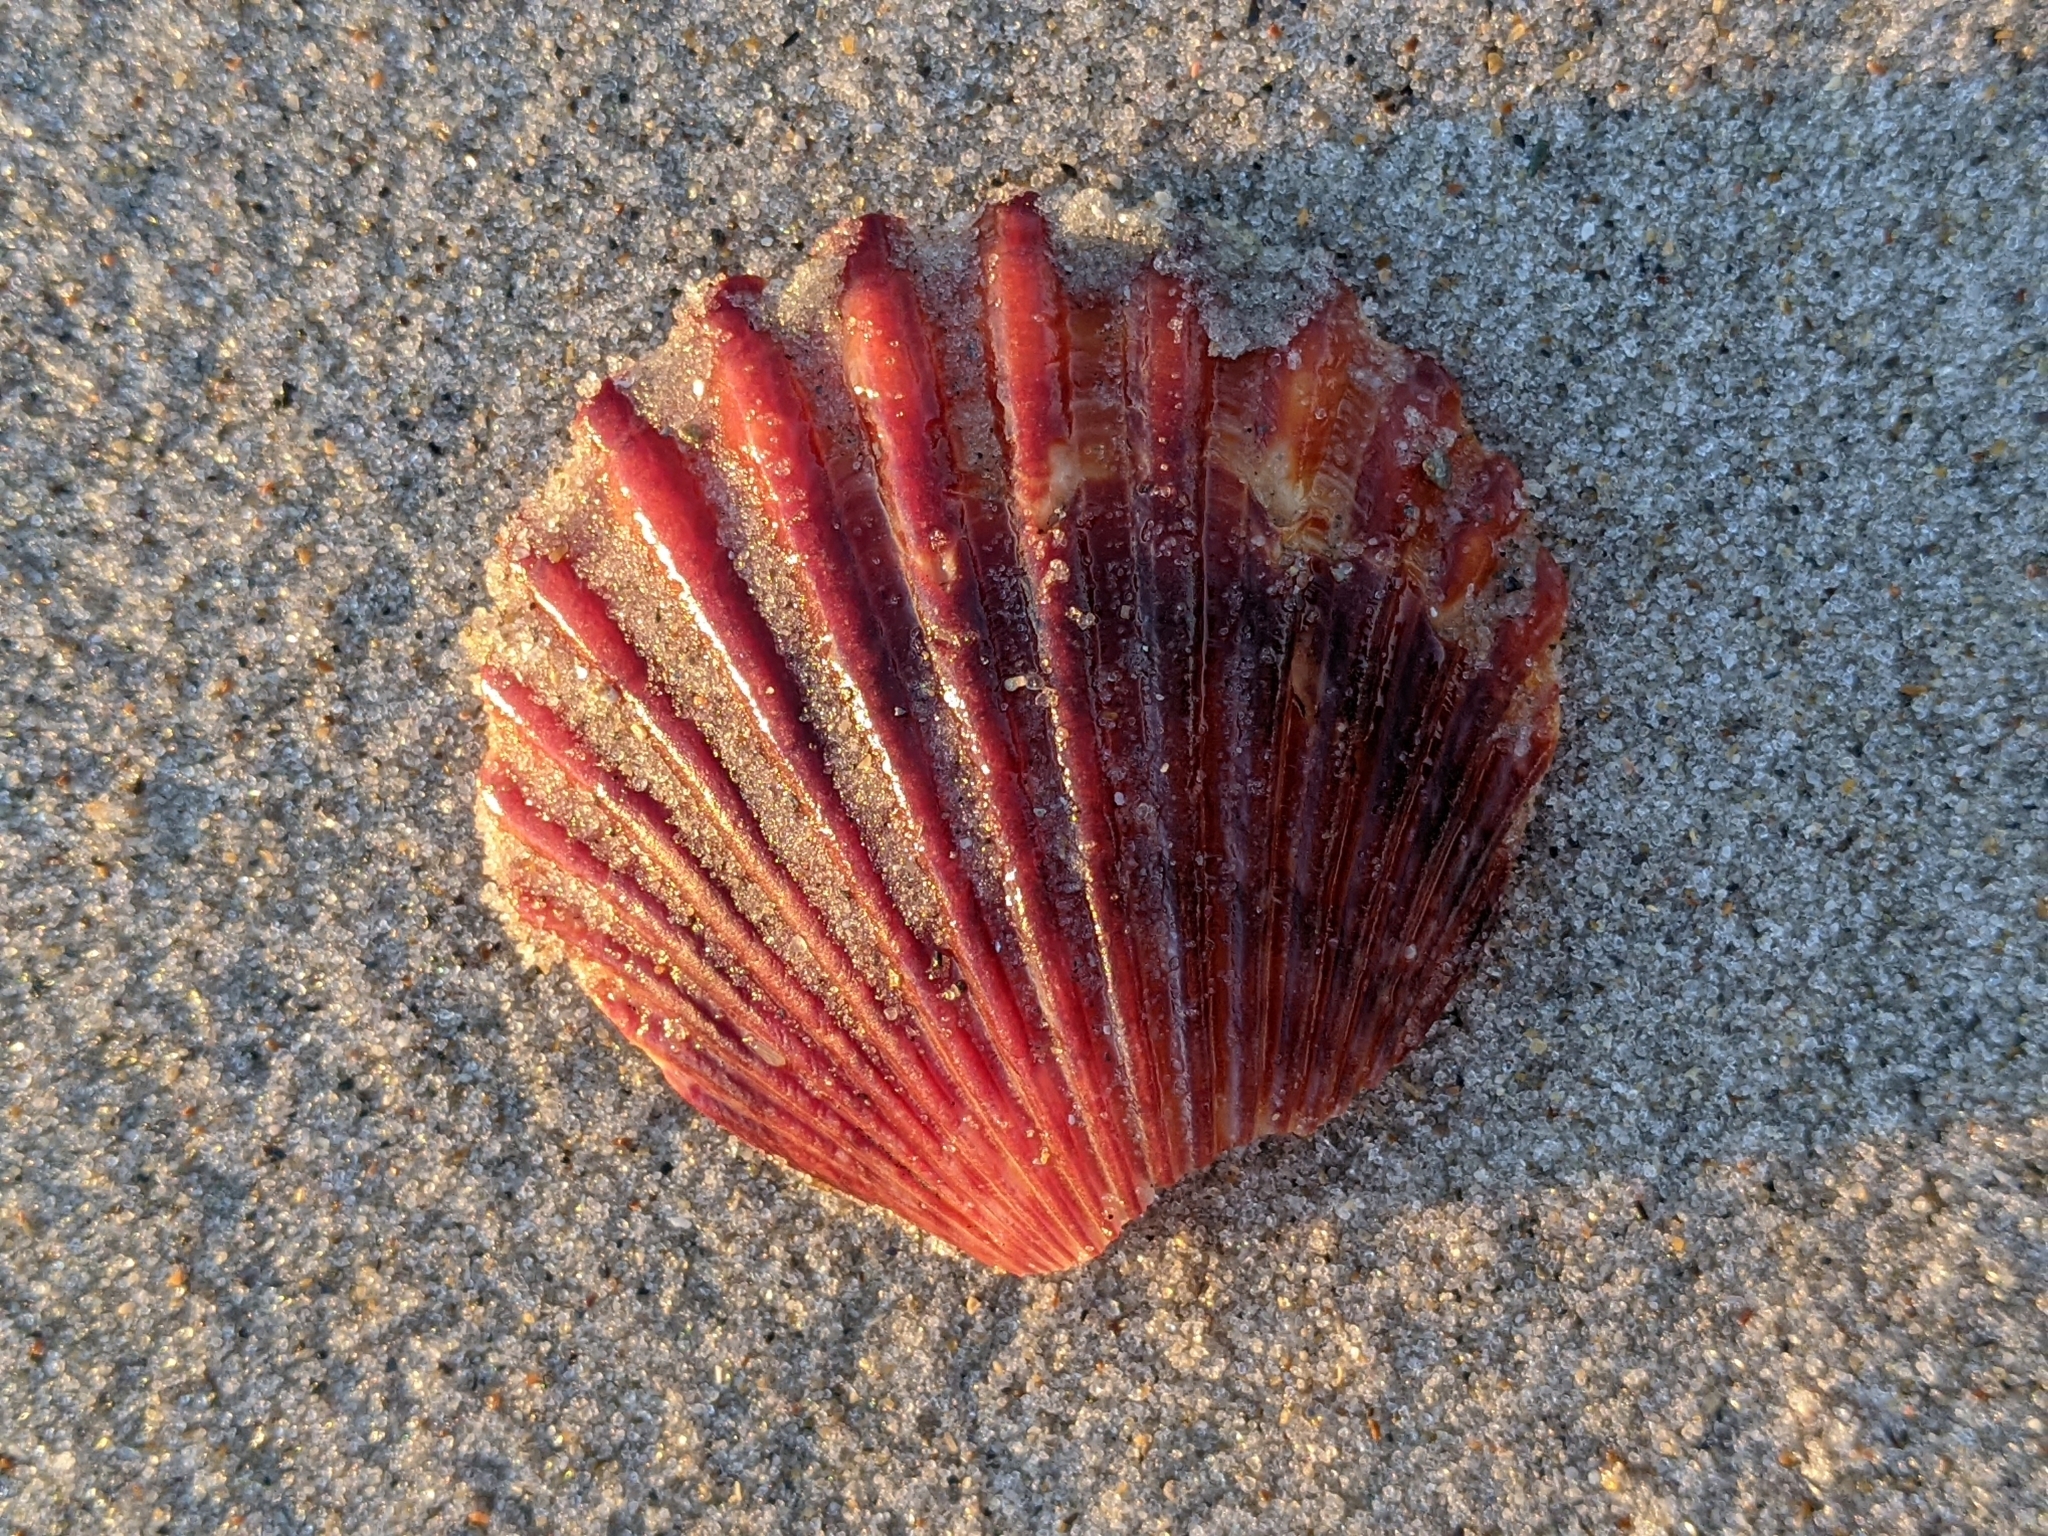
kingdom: Animalia
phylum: Mollusca
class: Bivalvia
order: Pectinida
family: Pectinidae
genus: Lindapecten
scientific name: Lindapecten muscosus
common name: Rough scallop
